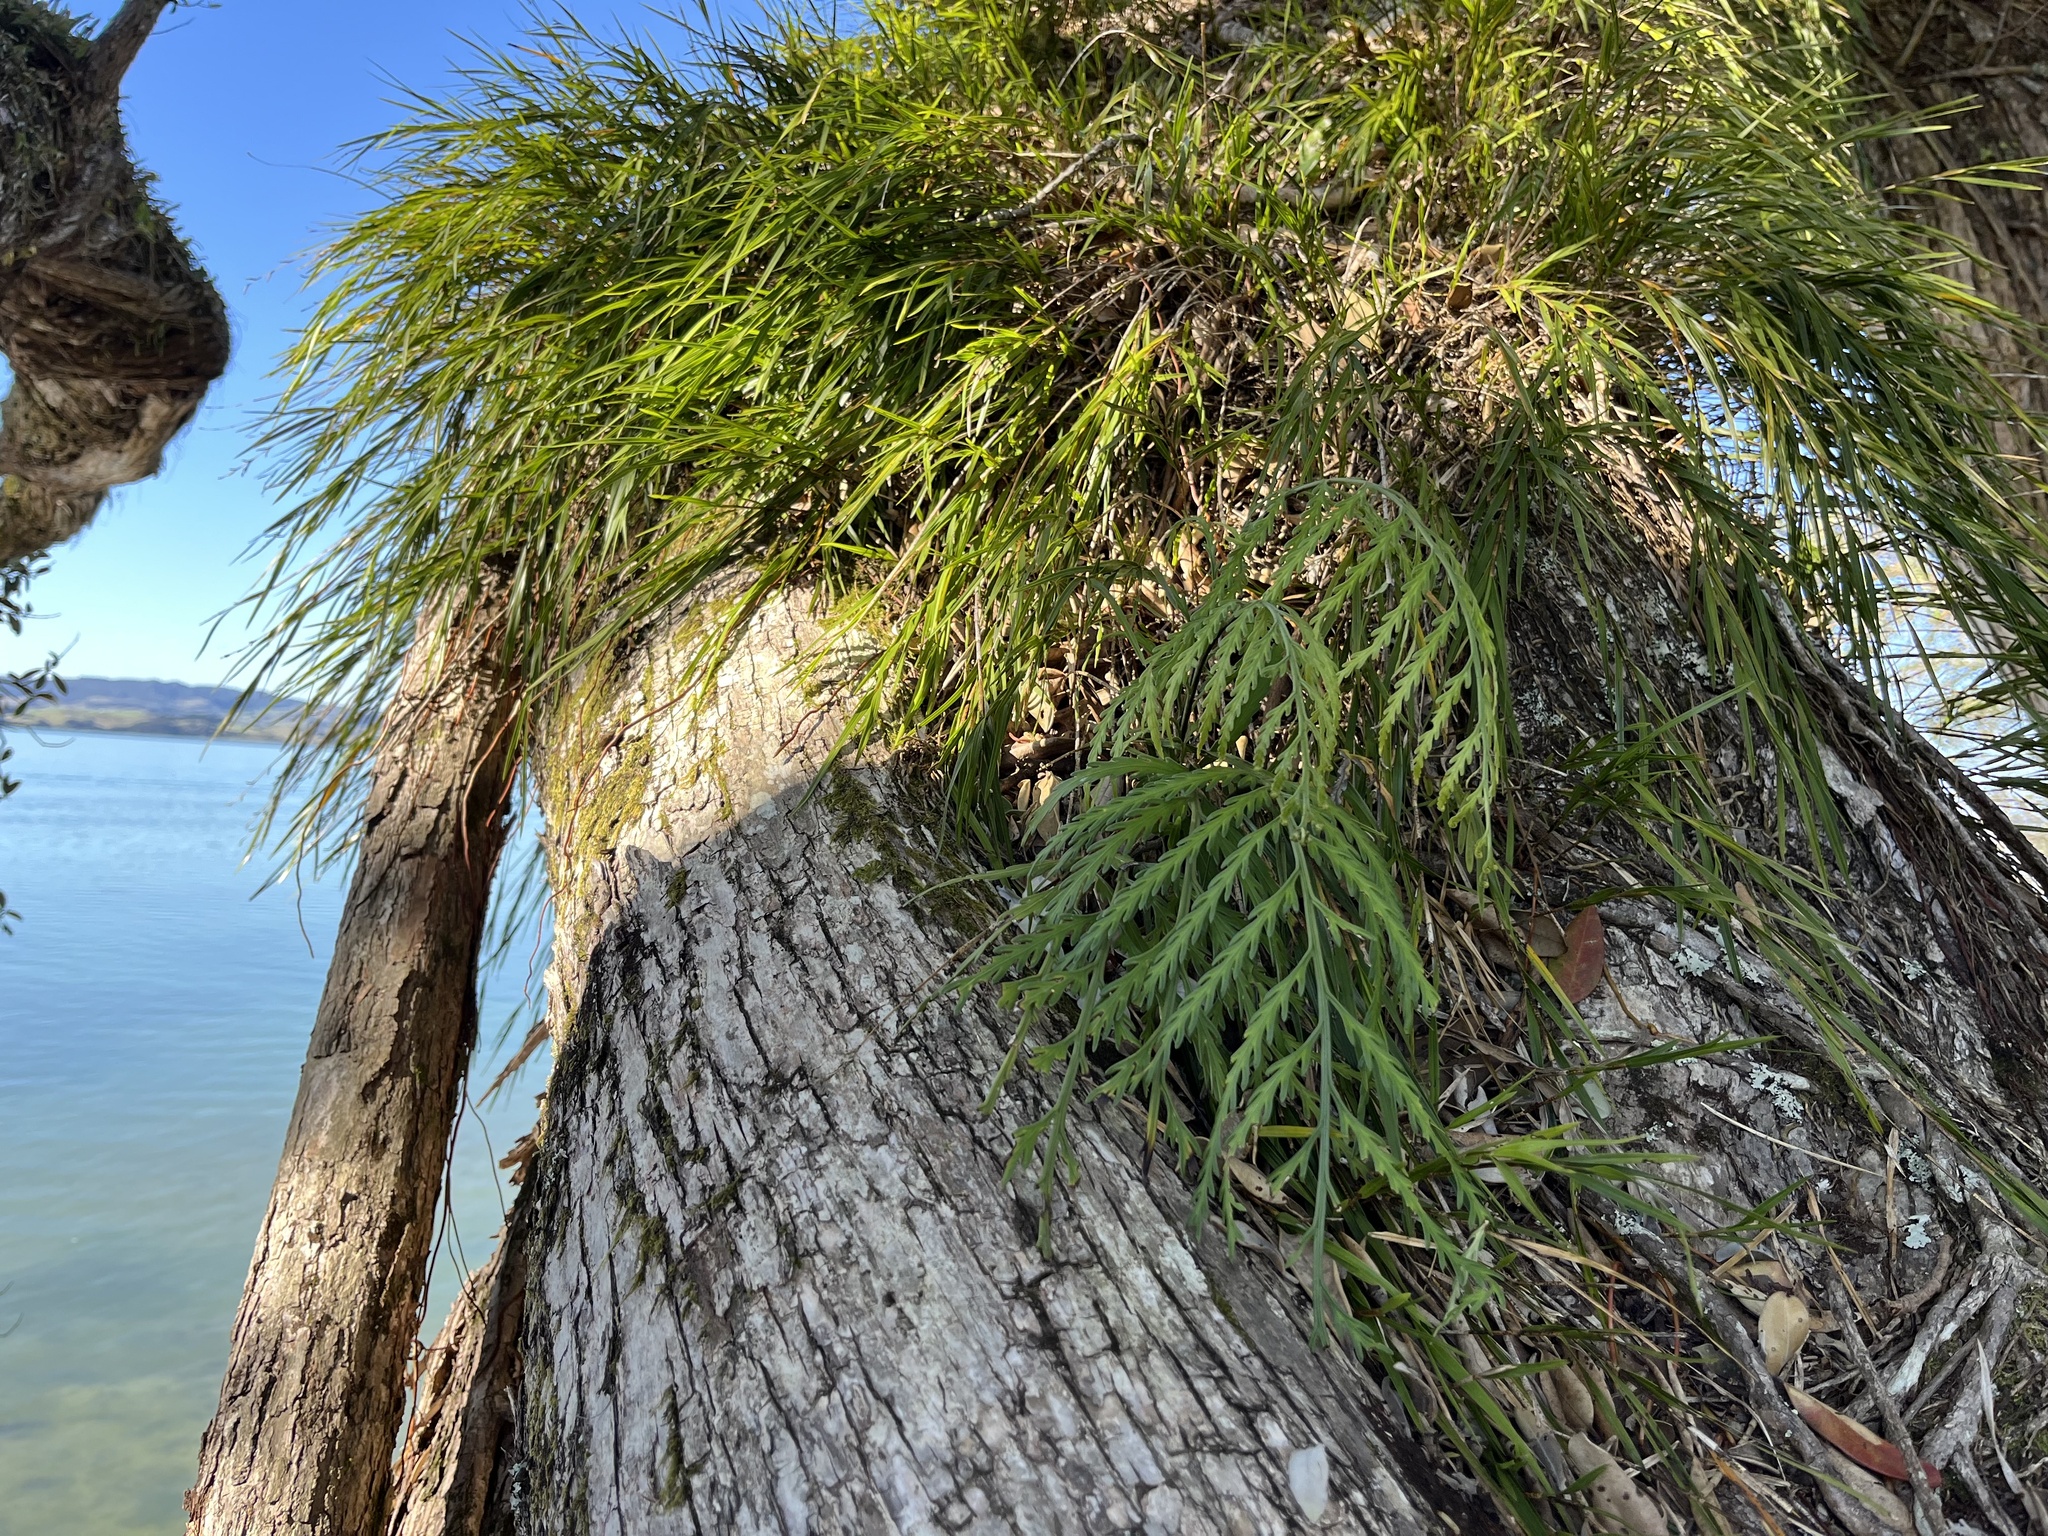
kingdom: Plantae
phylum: Tracheophyta
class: Polypodiopsida
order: Polypodiales
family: Aspleniaceae
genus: Asplenium
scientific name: Asplenium flaccidum
